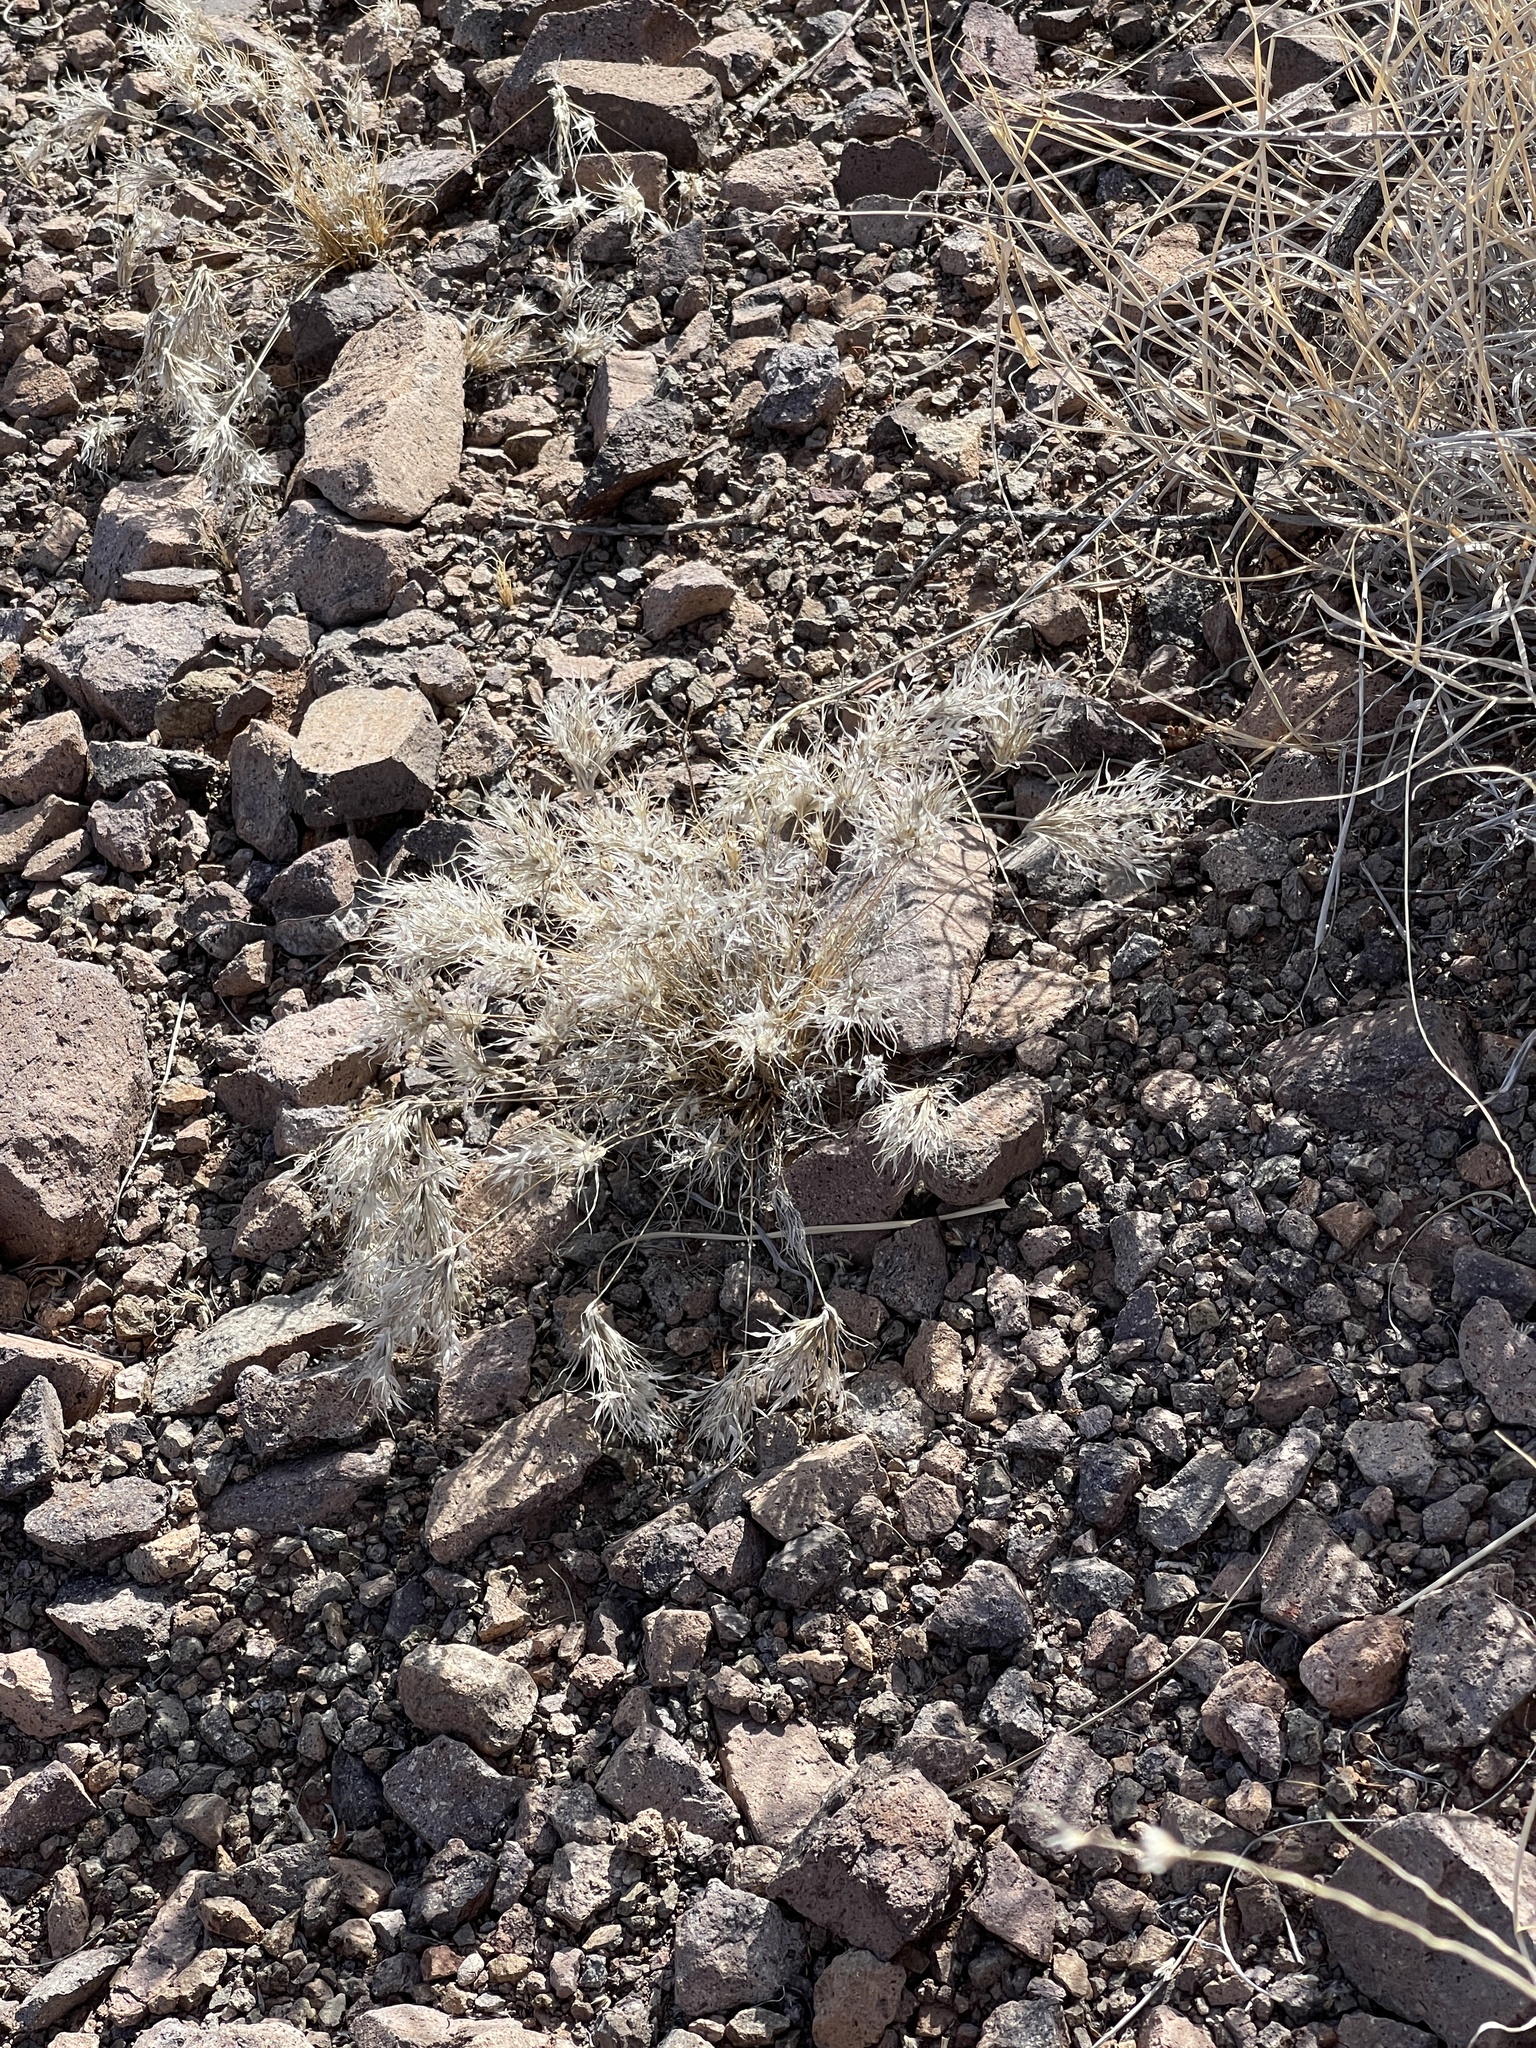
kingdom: Plantae
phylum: Tracheophyta
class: Liliopsida
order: Poales
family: Poaceae
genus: Dasyochloa
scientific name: Dasyochloa pulchella
